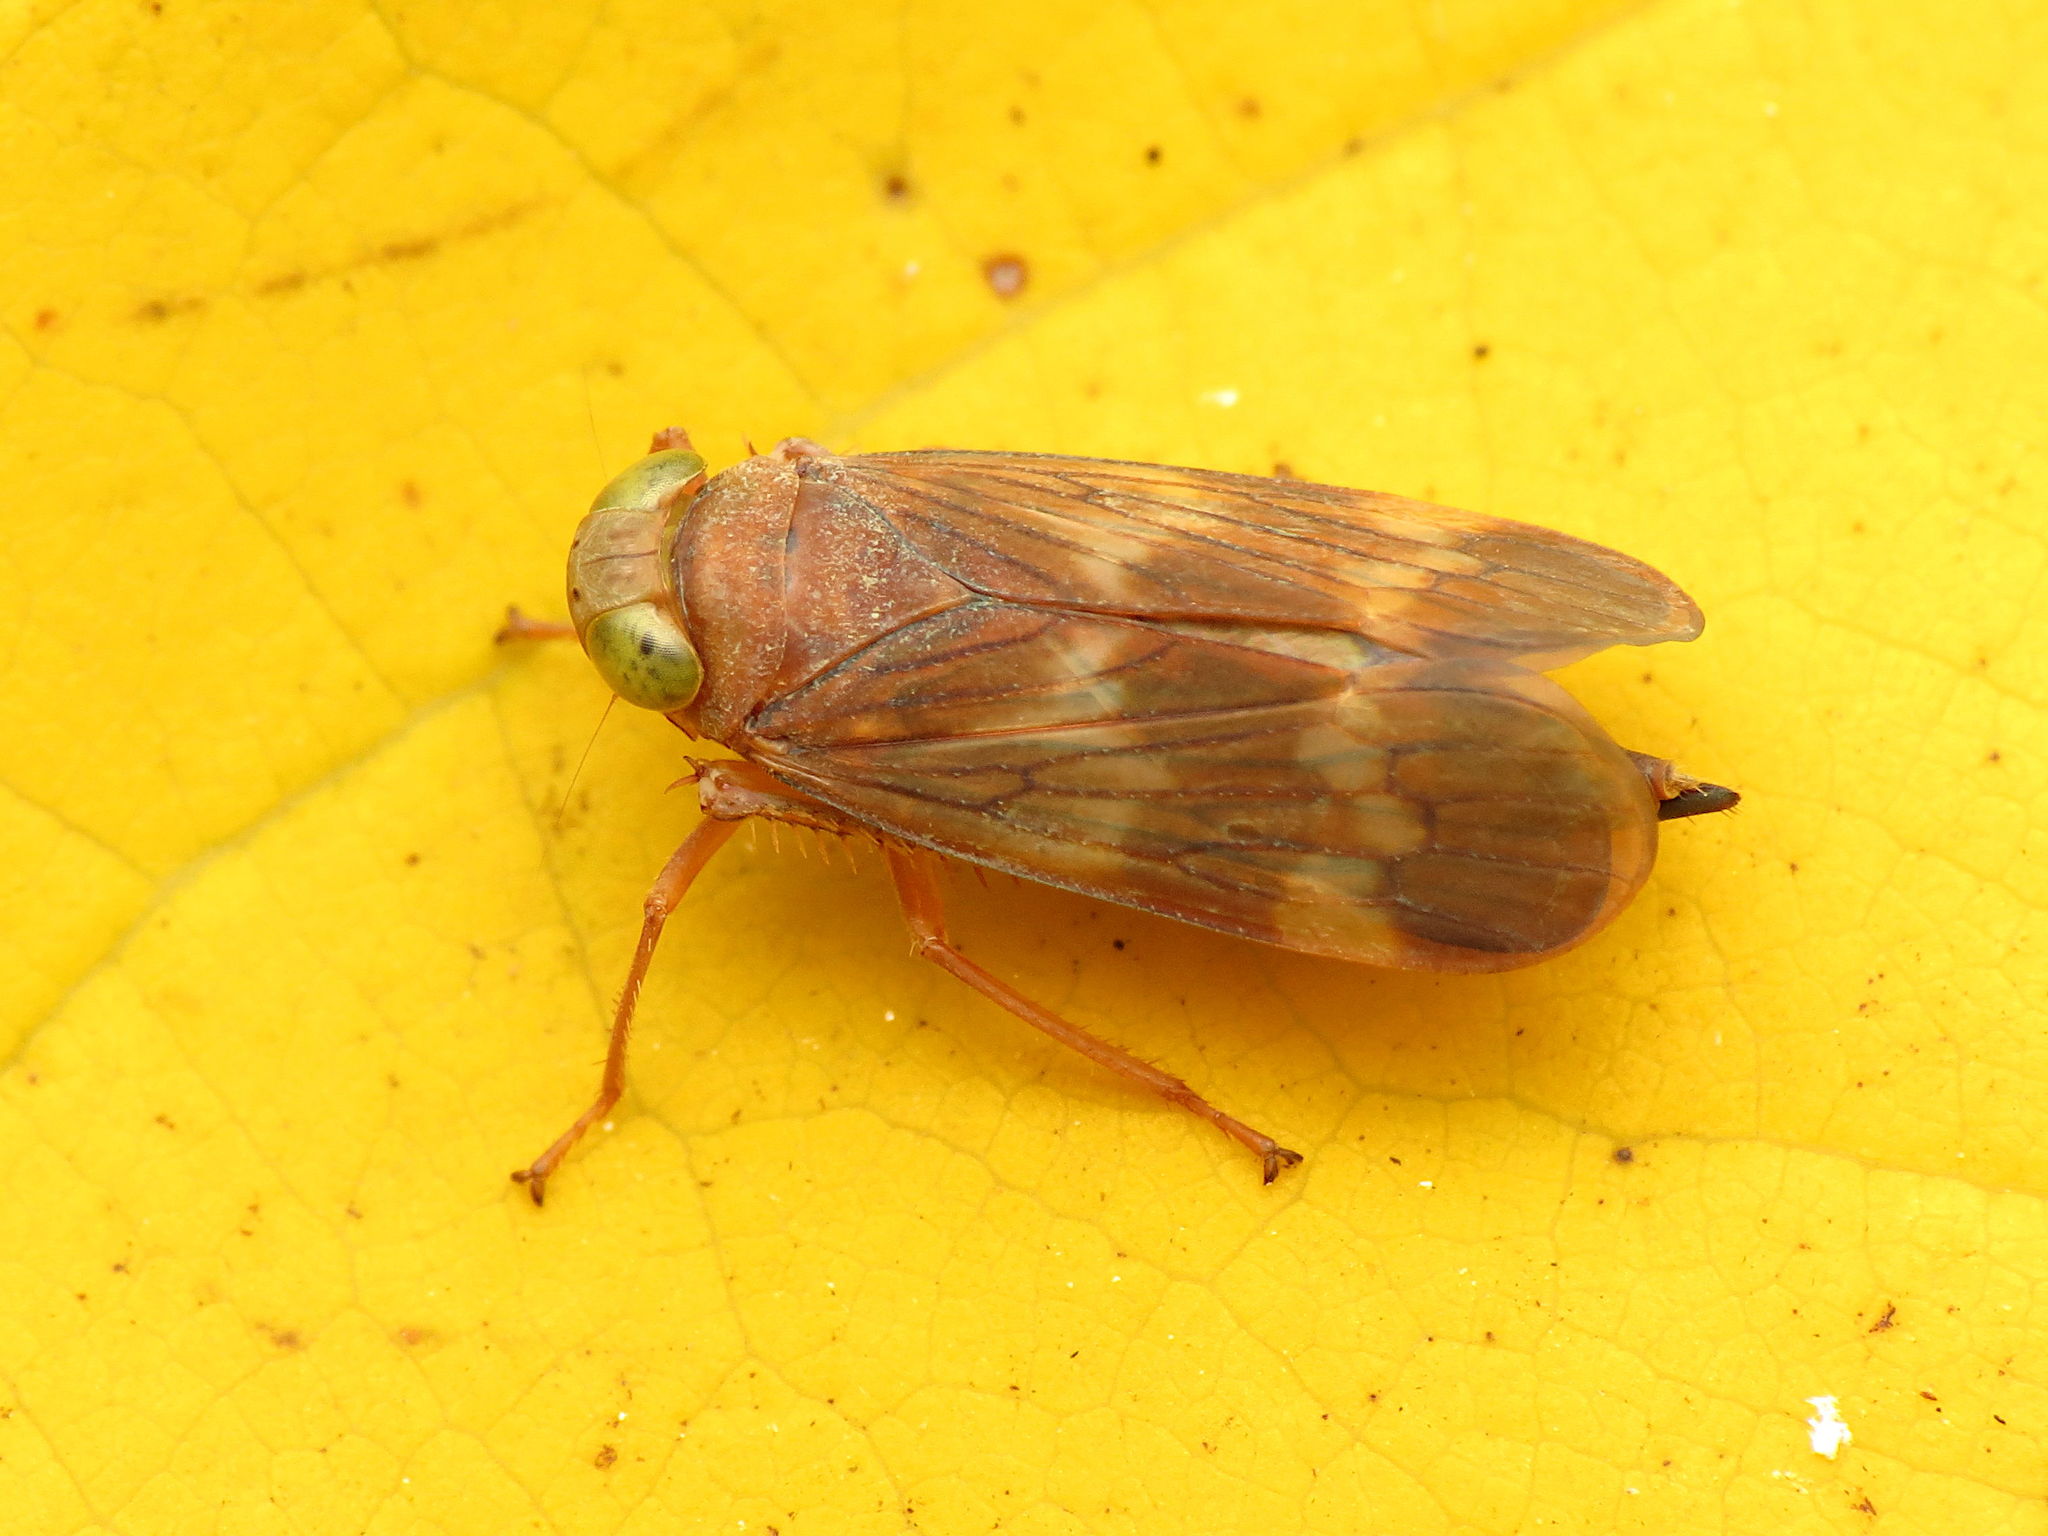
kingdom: Animalia
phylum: Arthropoda
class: Insecta
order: Hemiptera
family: Cicadellidae
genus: Jikradia
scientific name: Jikradia olitoria
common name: Coppery leafhopper
